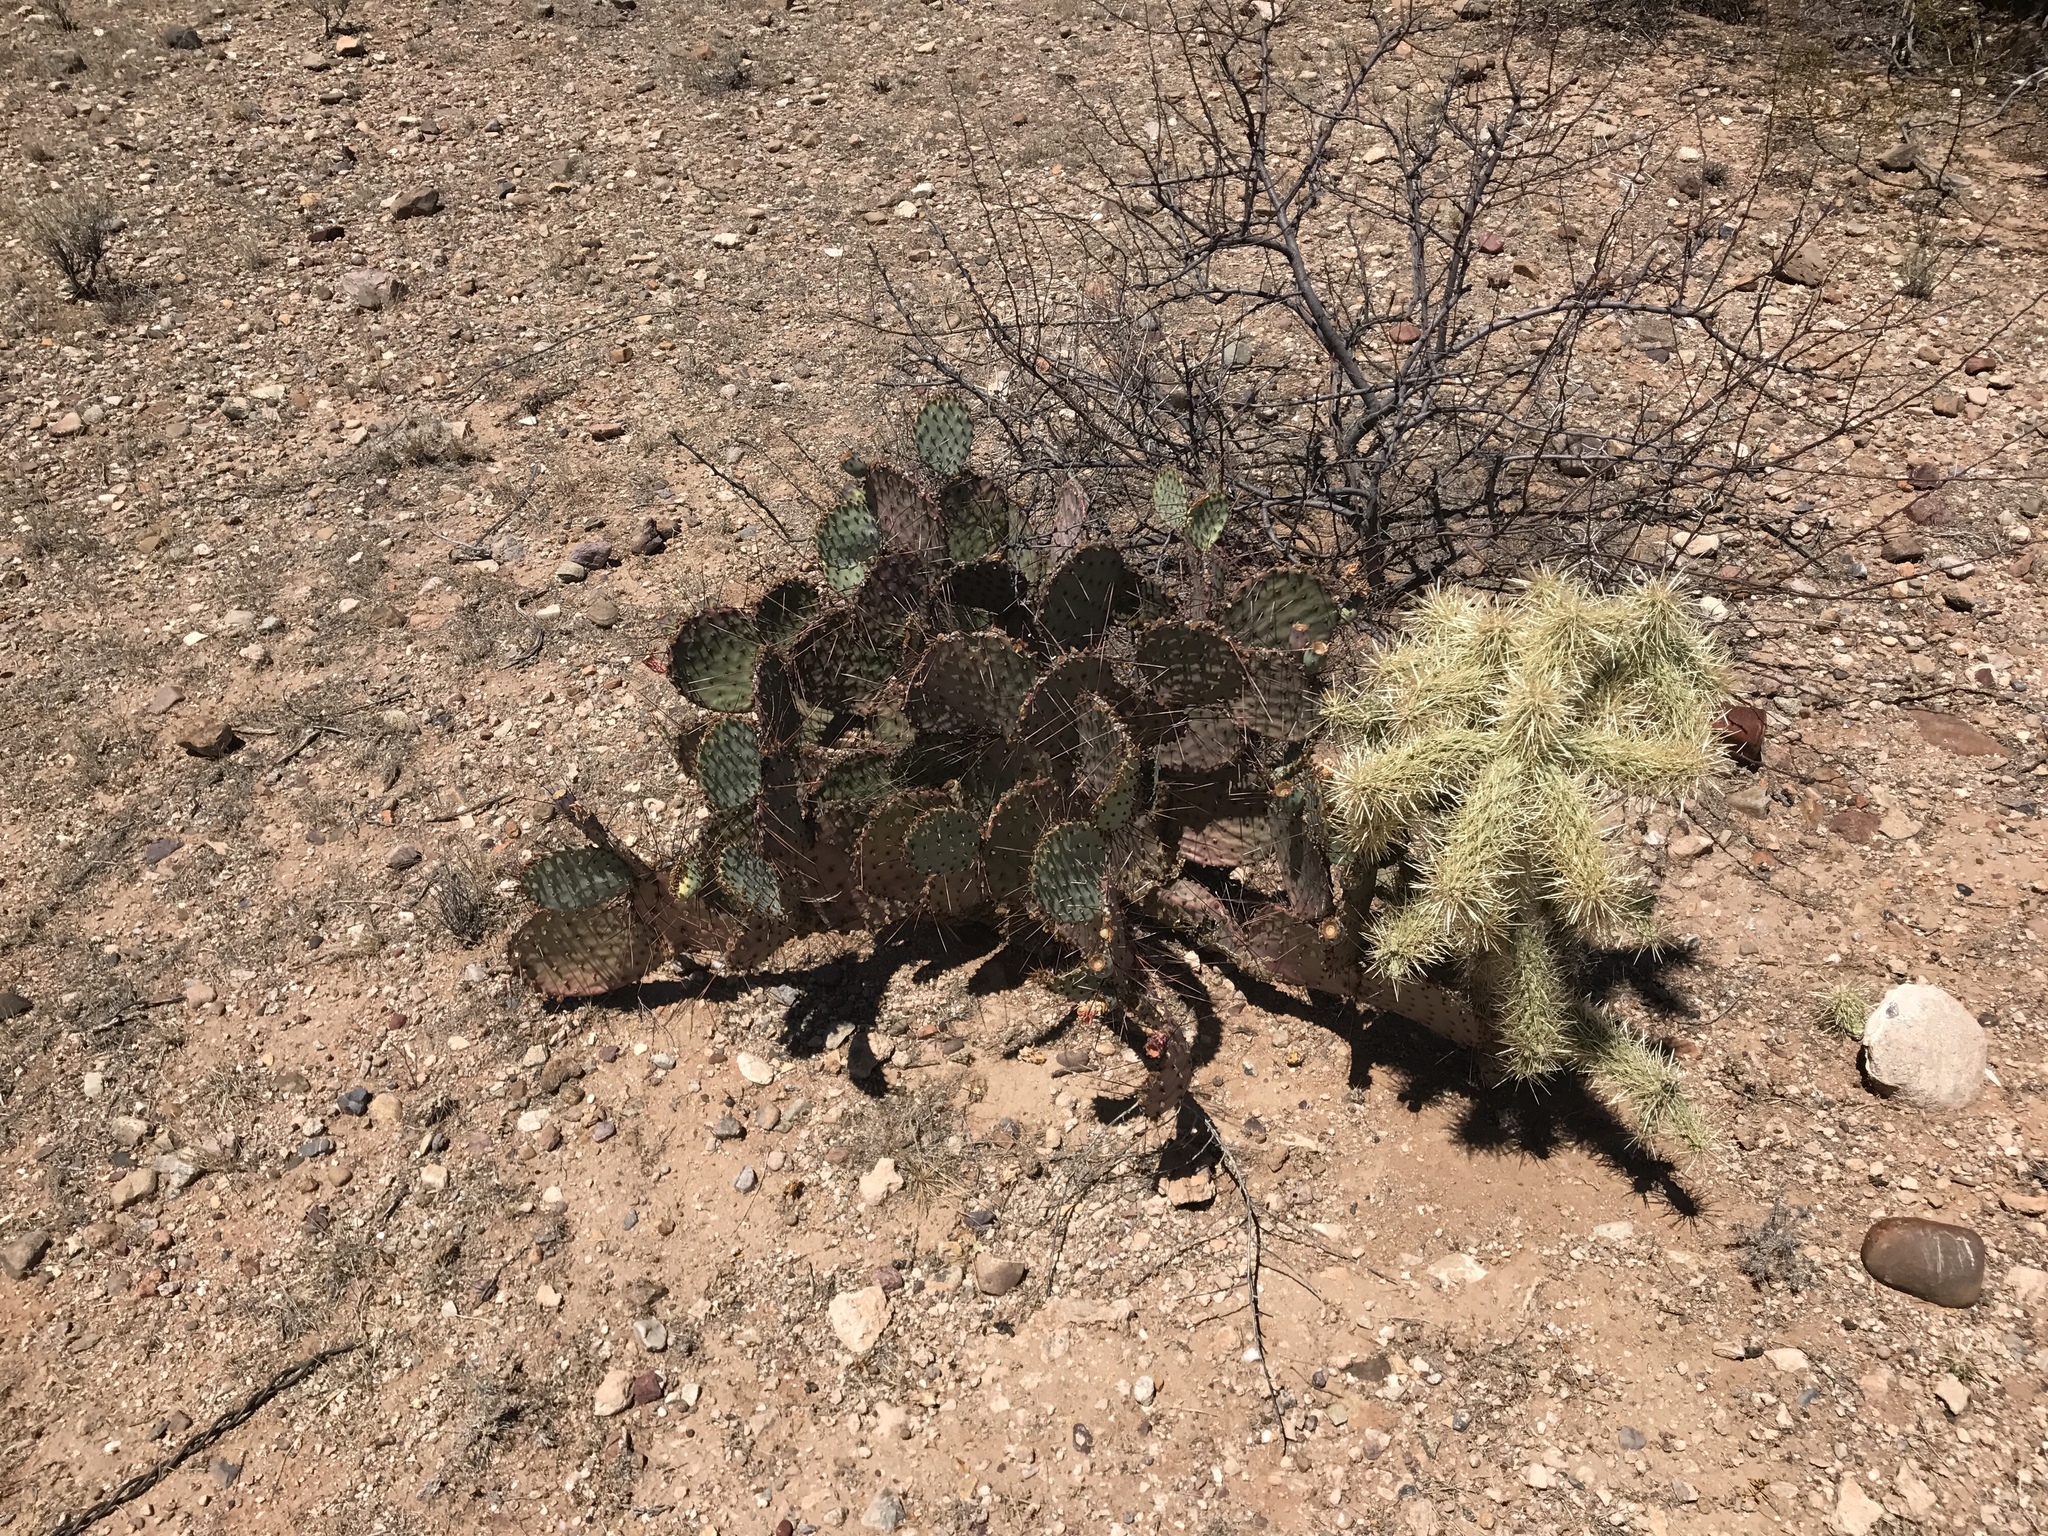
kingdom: Plantae
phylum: Tracheophyta
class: Magnoliopsida
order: Caryophyllales
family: Cactaceae
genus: Opuntia
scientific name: Opuntia macrocentra
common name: Purple prickly-pear
